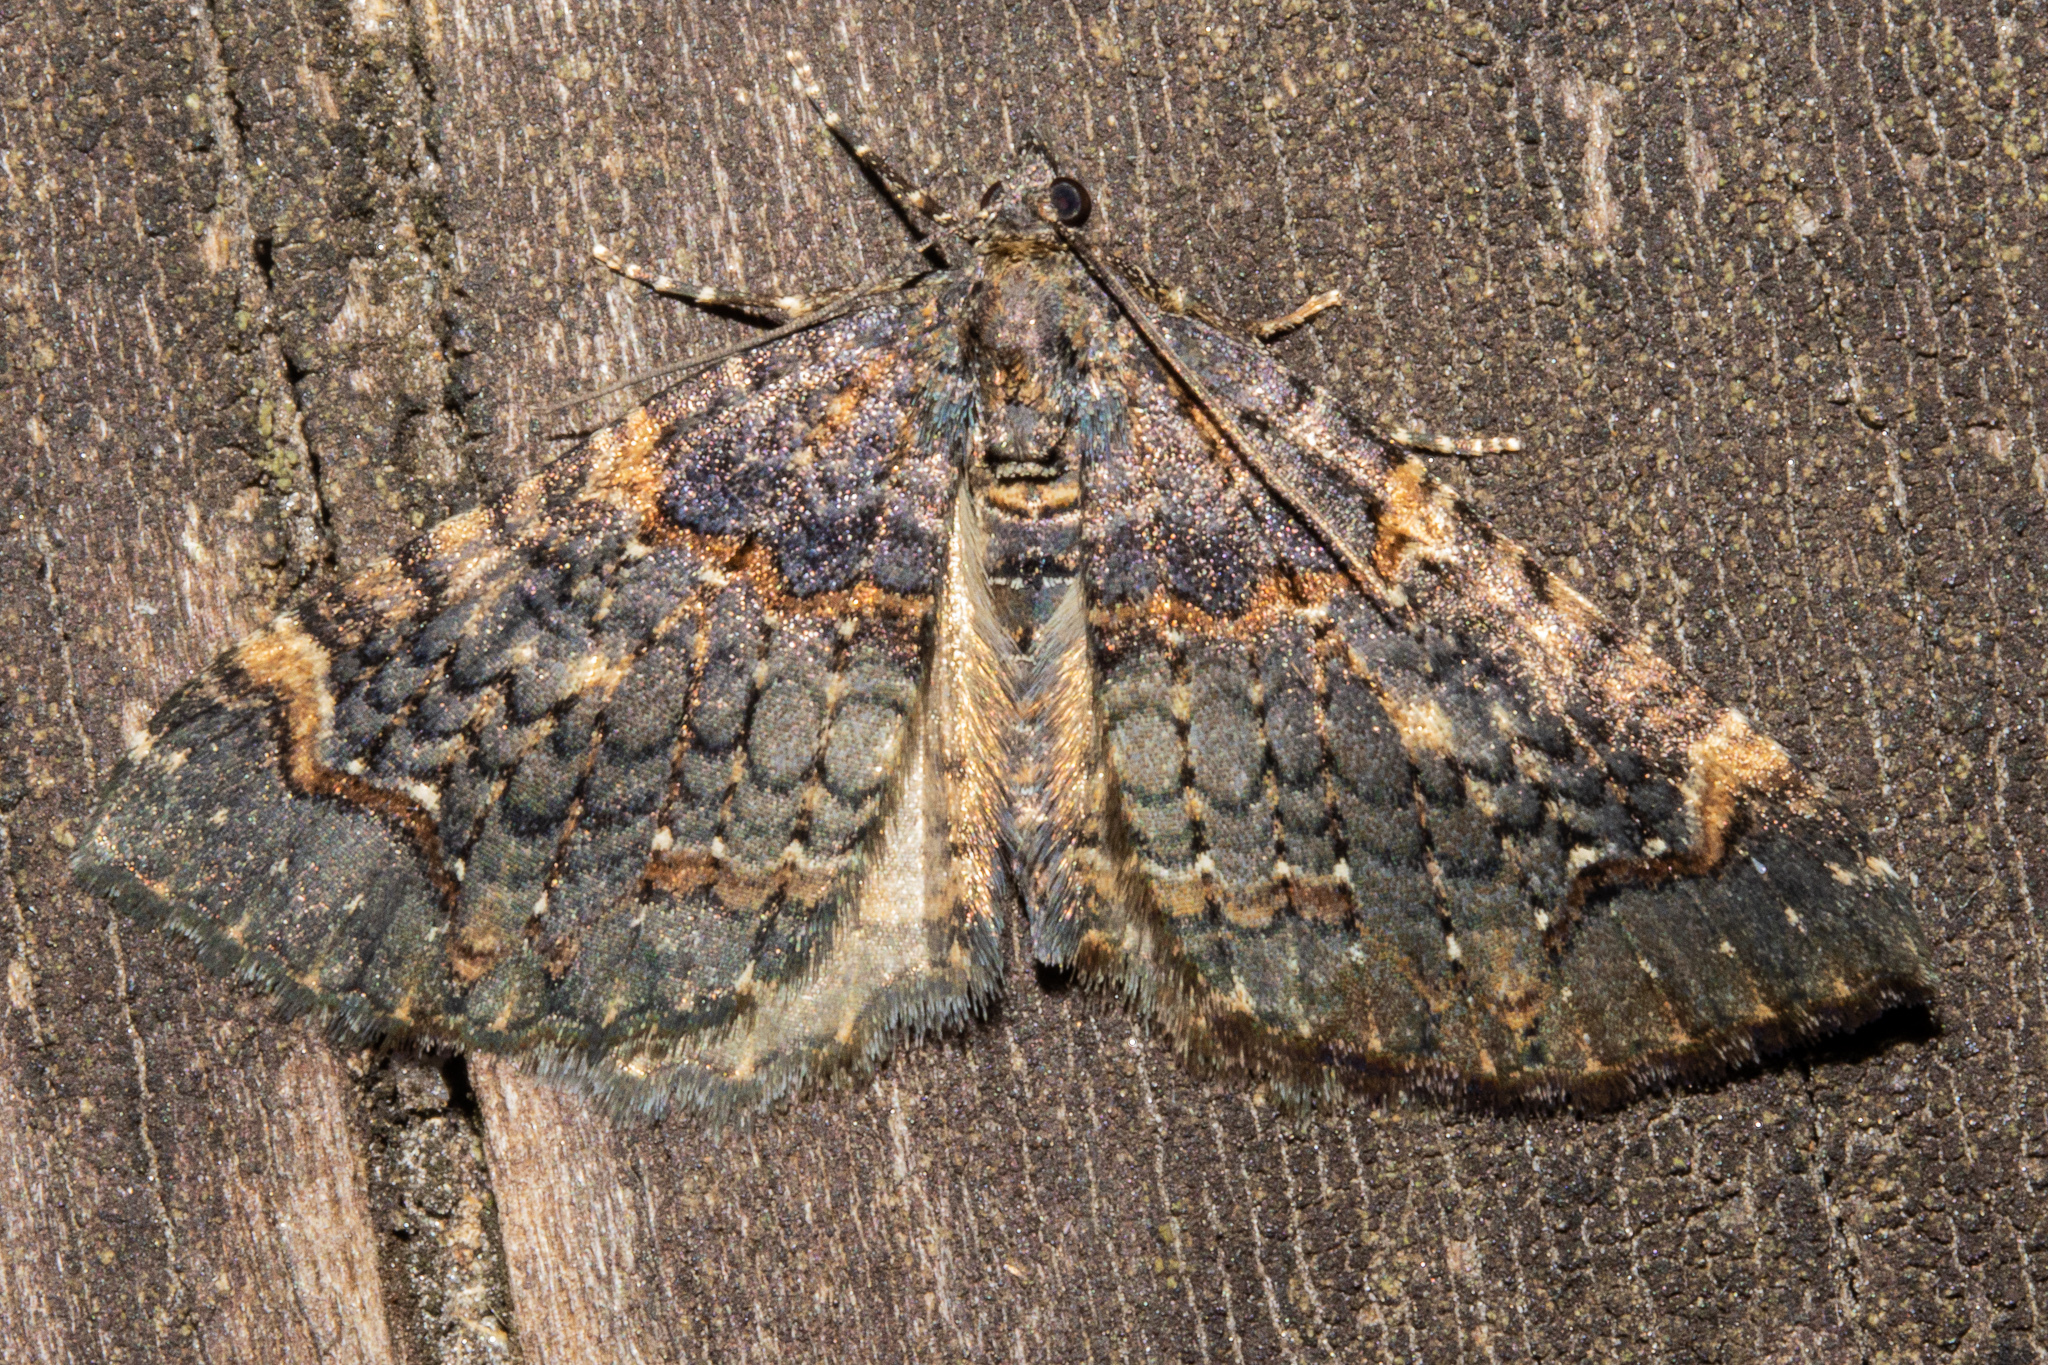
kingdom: Animalia
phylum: Arthropoda
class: Insecta
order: Lepidoptera
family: Geometridae
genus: Hydriomena
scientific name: Hydriomena arida
